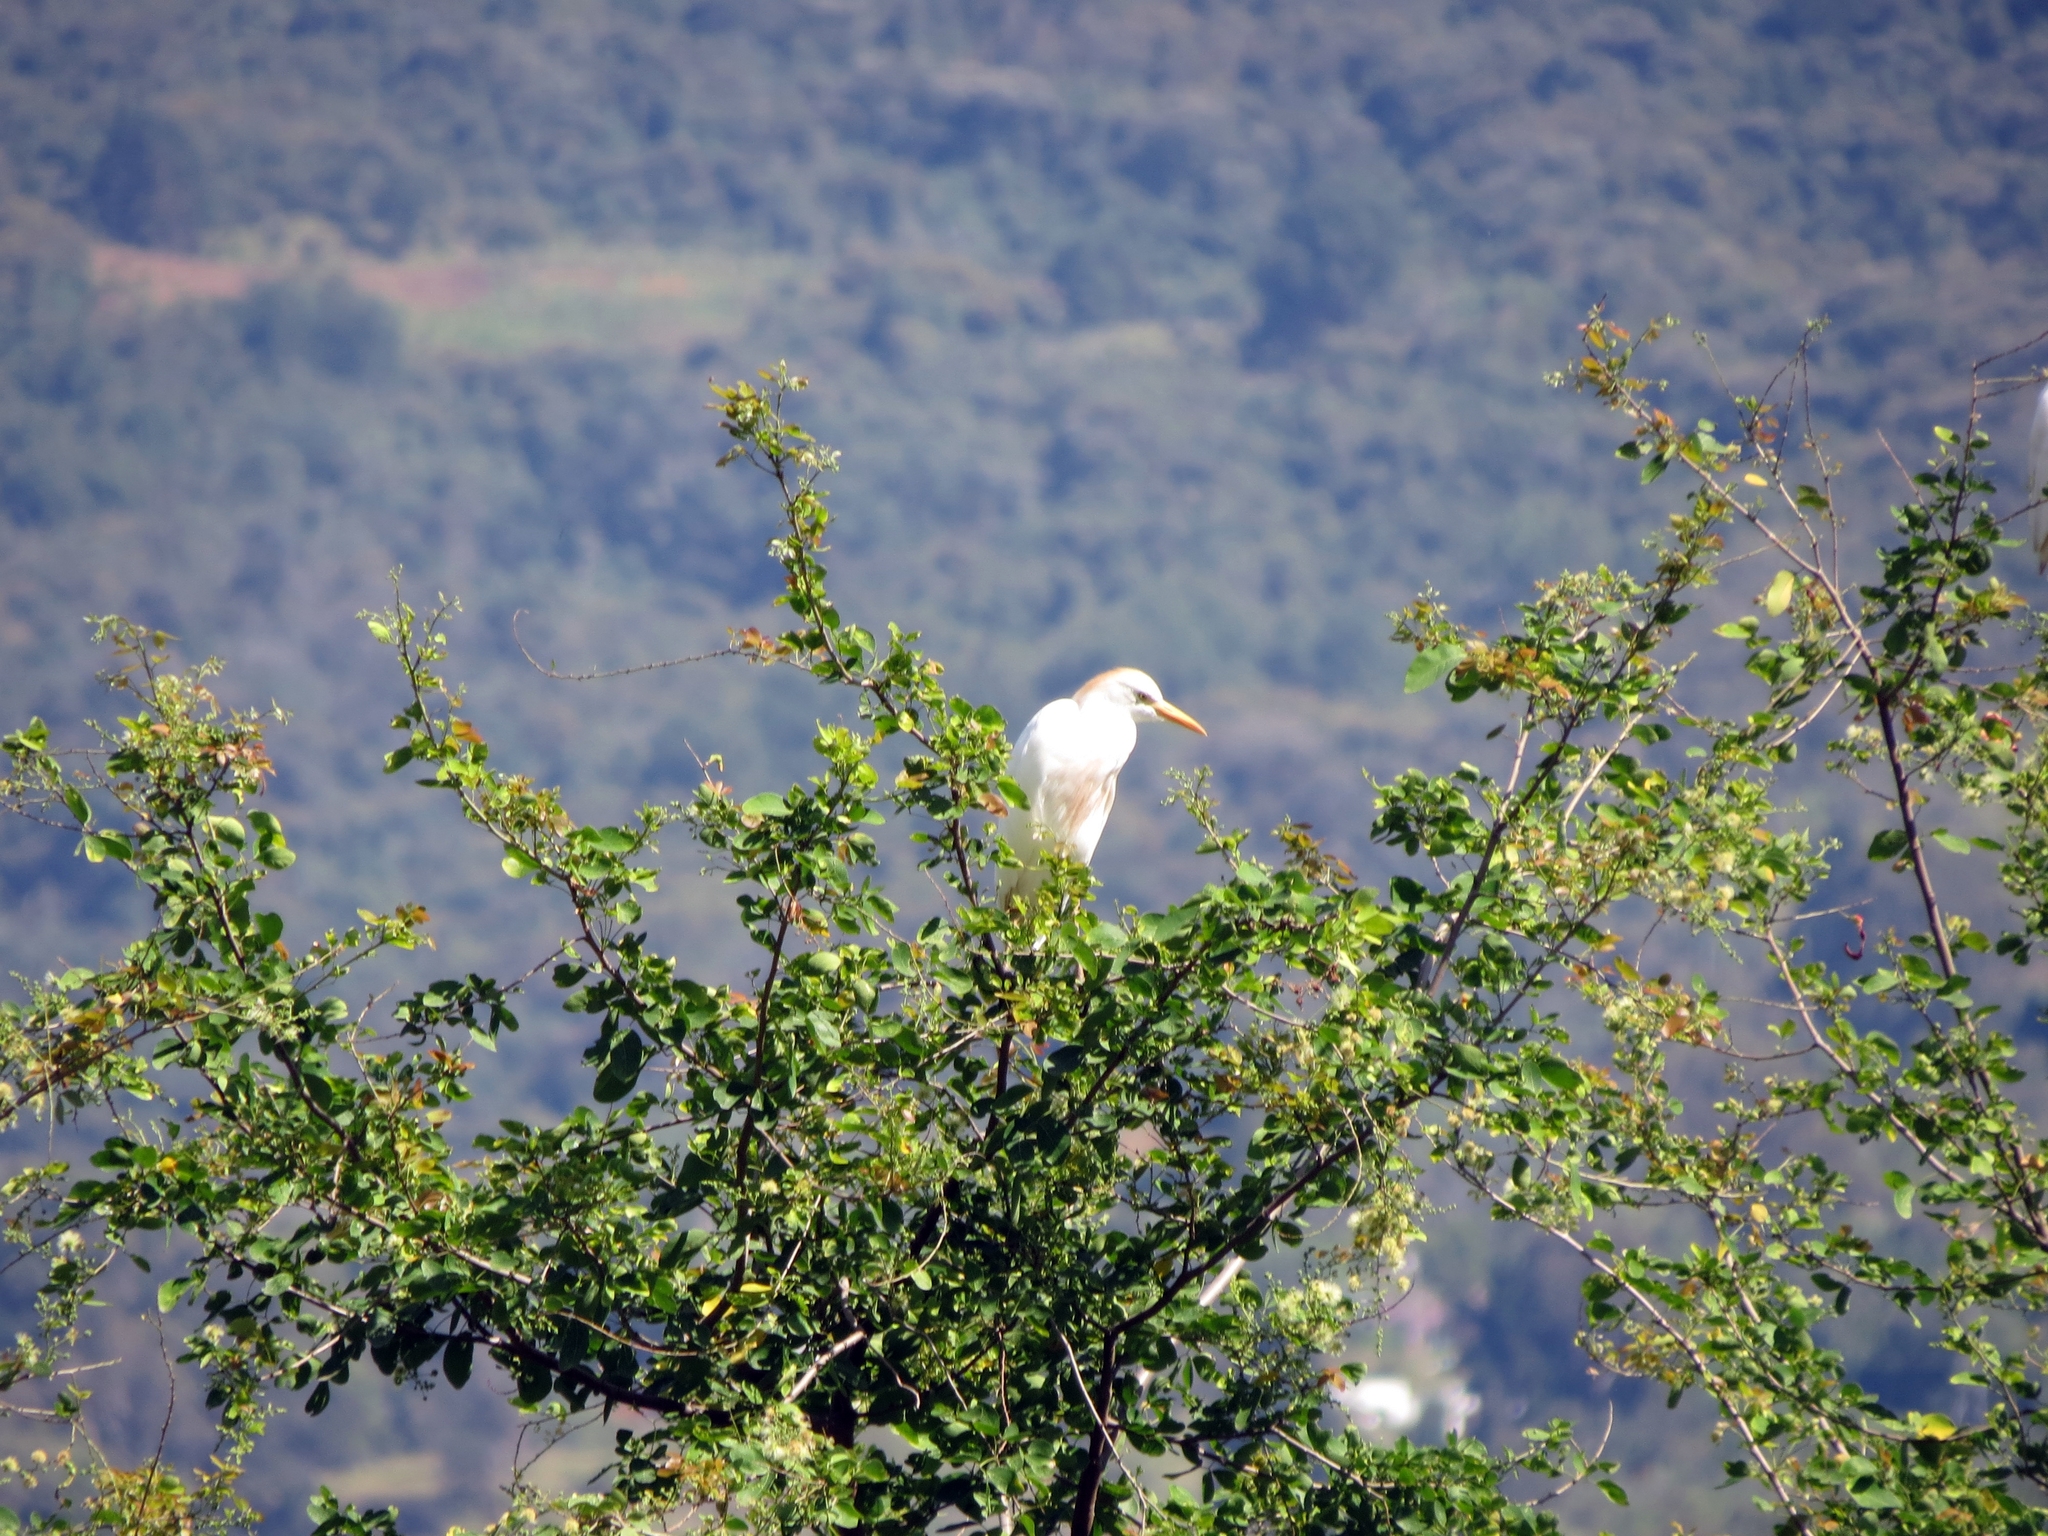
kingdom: Animalia
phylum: Chordata
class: Aves
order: Pelecaniformes
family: Ardeidae
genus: Bubulcus
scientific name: Bubulcus ibis
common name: Cattle egret
